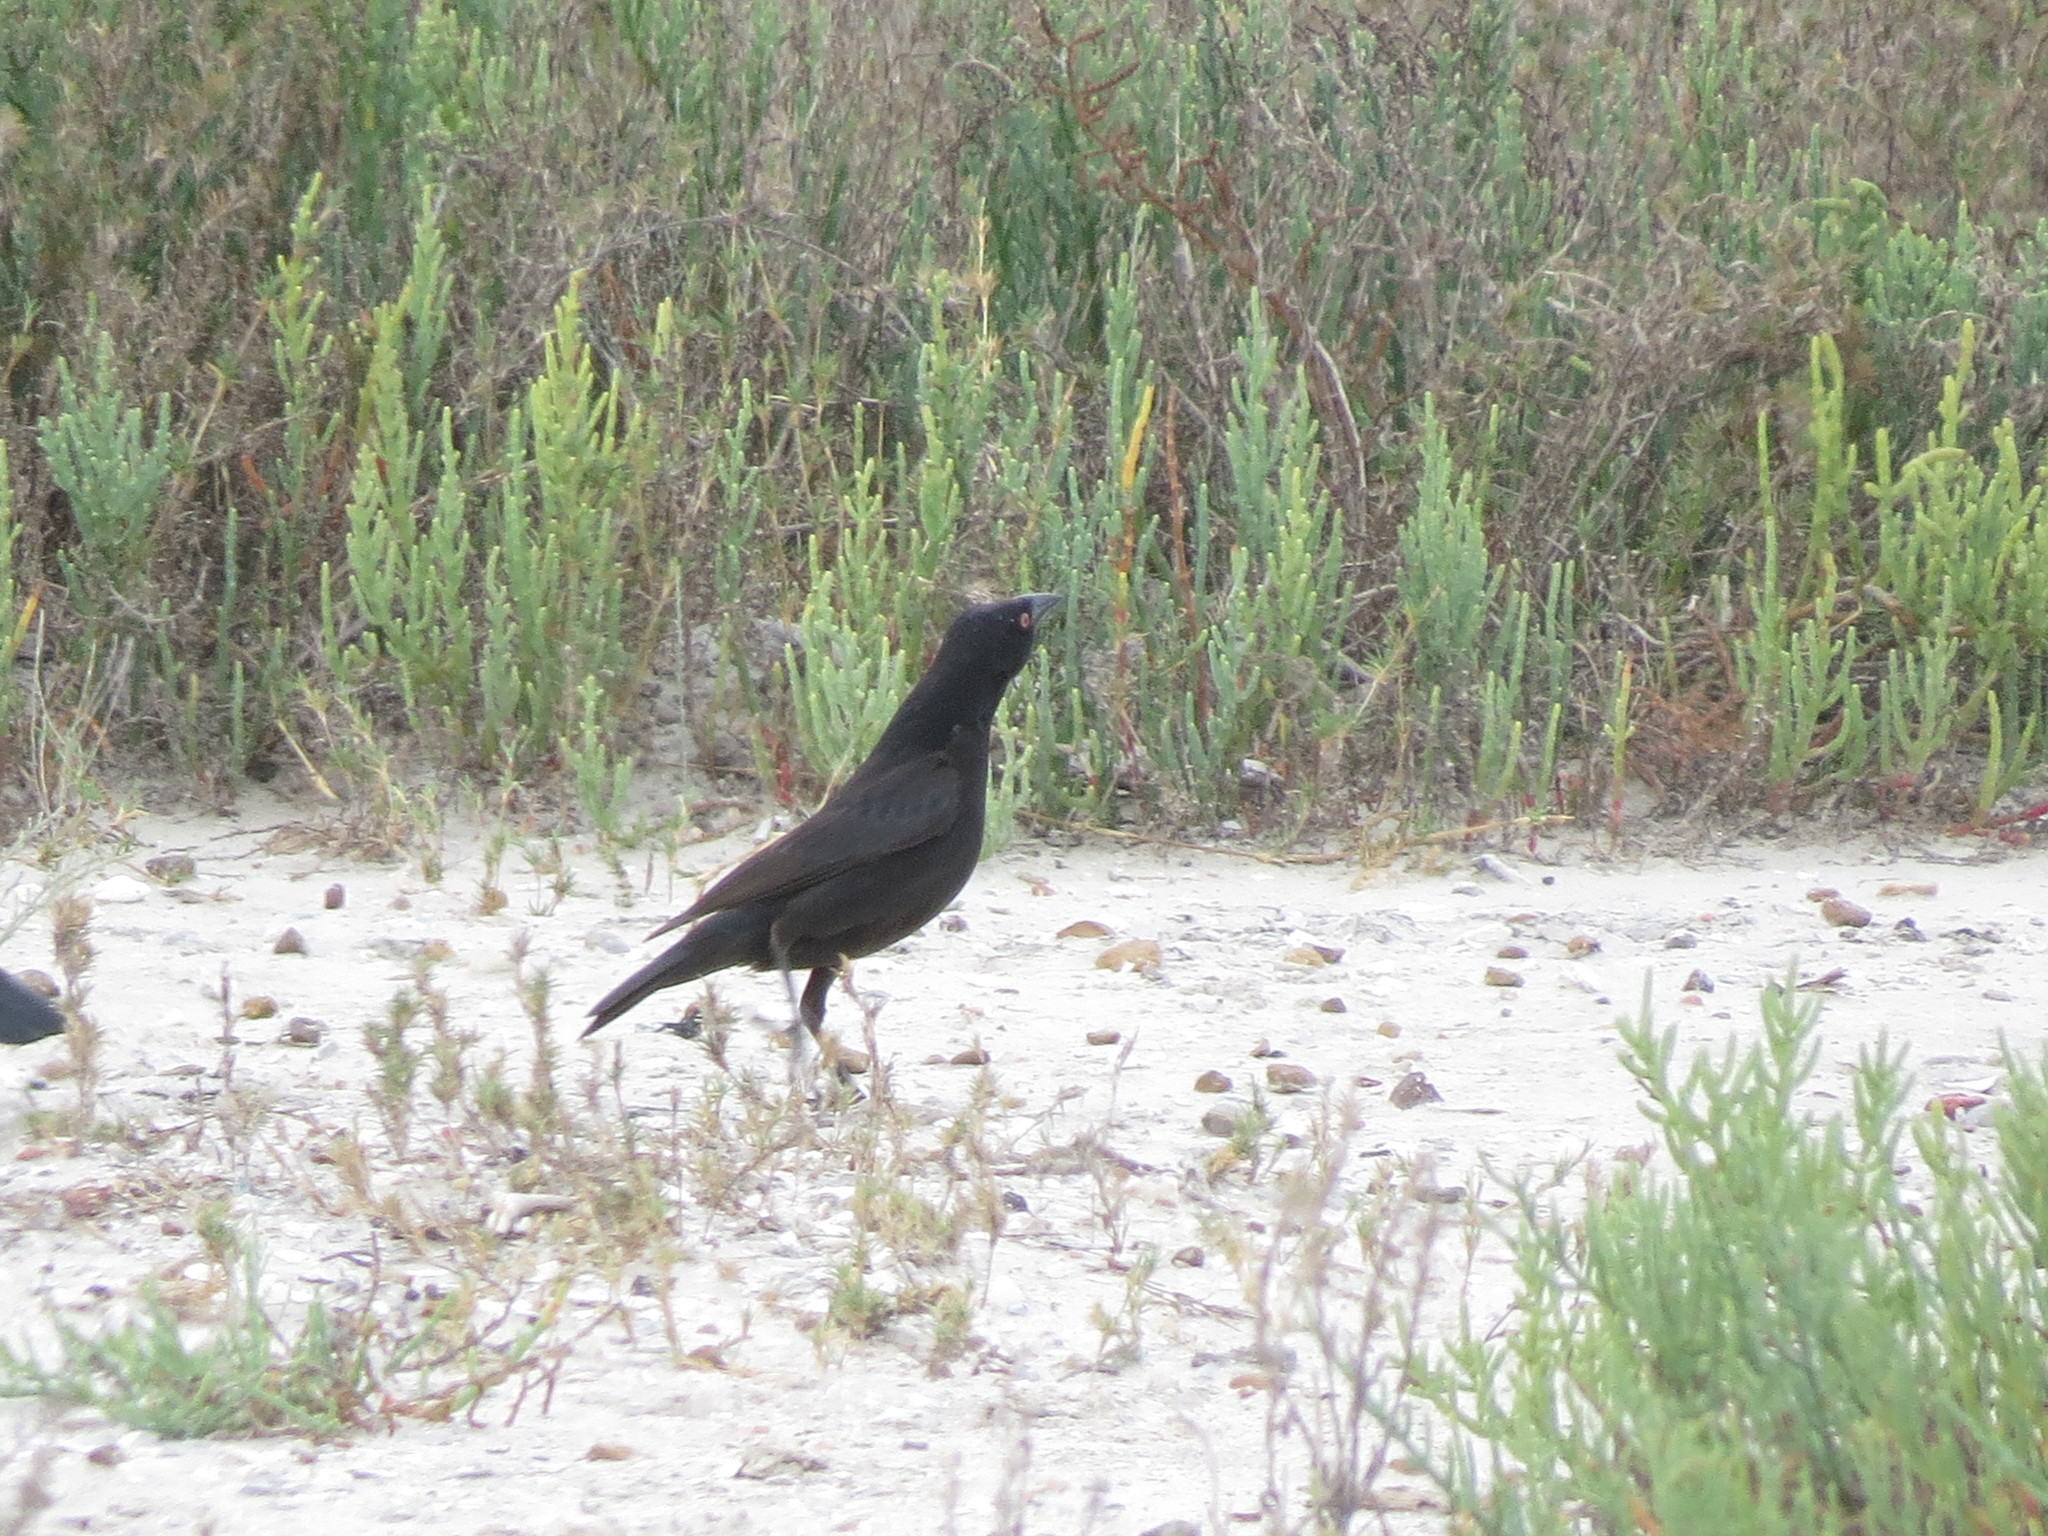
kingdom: Animalia
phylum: Chordata
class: Aves
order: Passeriformes
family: Icteridae
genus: Molothrus
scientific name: Molothrus aeneus
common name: Bronzed cowbird
